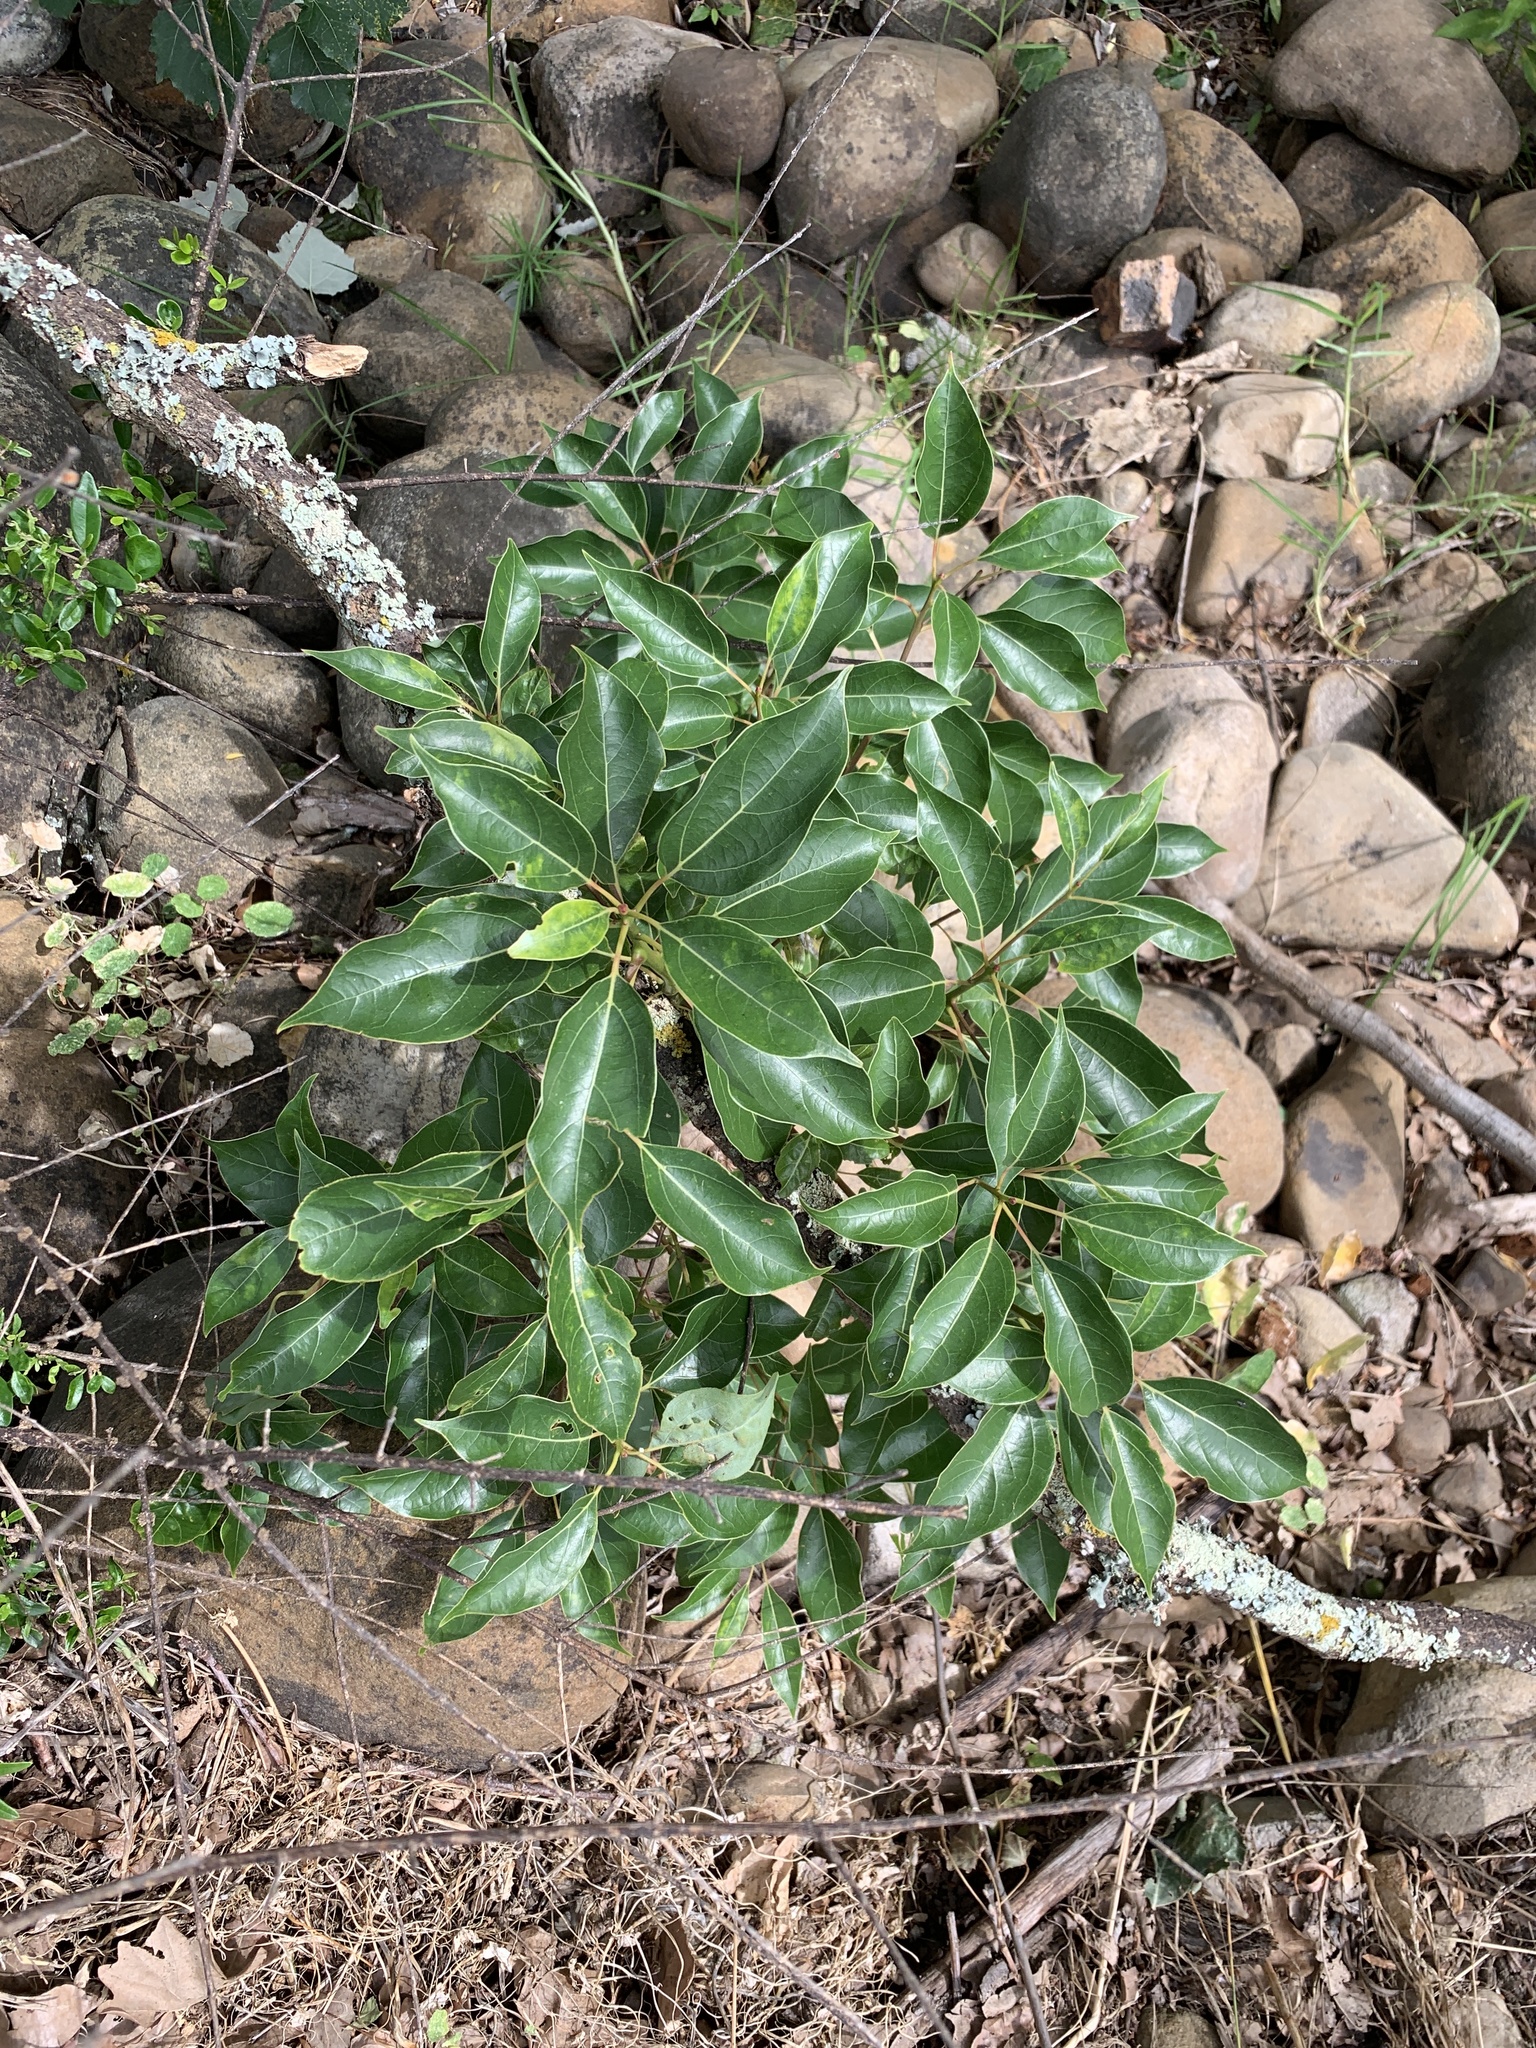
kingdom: Plantae
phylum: Tracheophyta
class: Magnoliopsida
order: Laurales
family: Lauraceae
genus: Cinnamomum
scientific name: Cinnamomum camphora
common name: Camphortree
